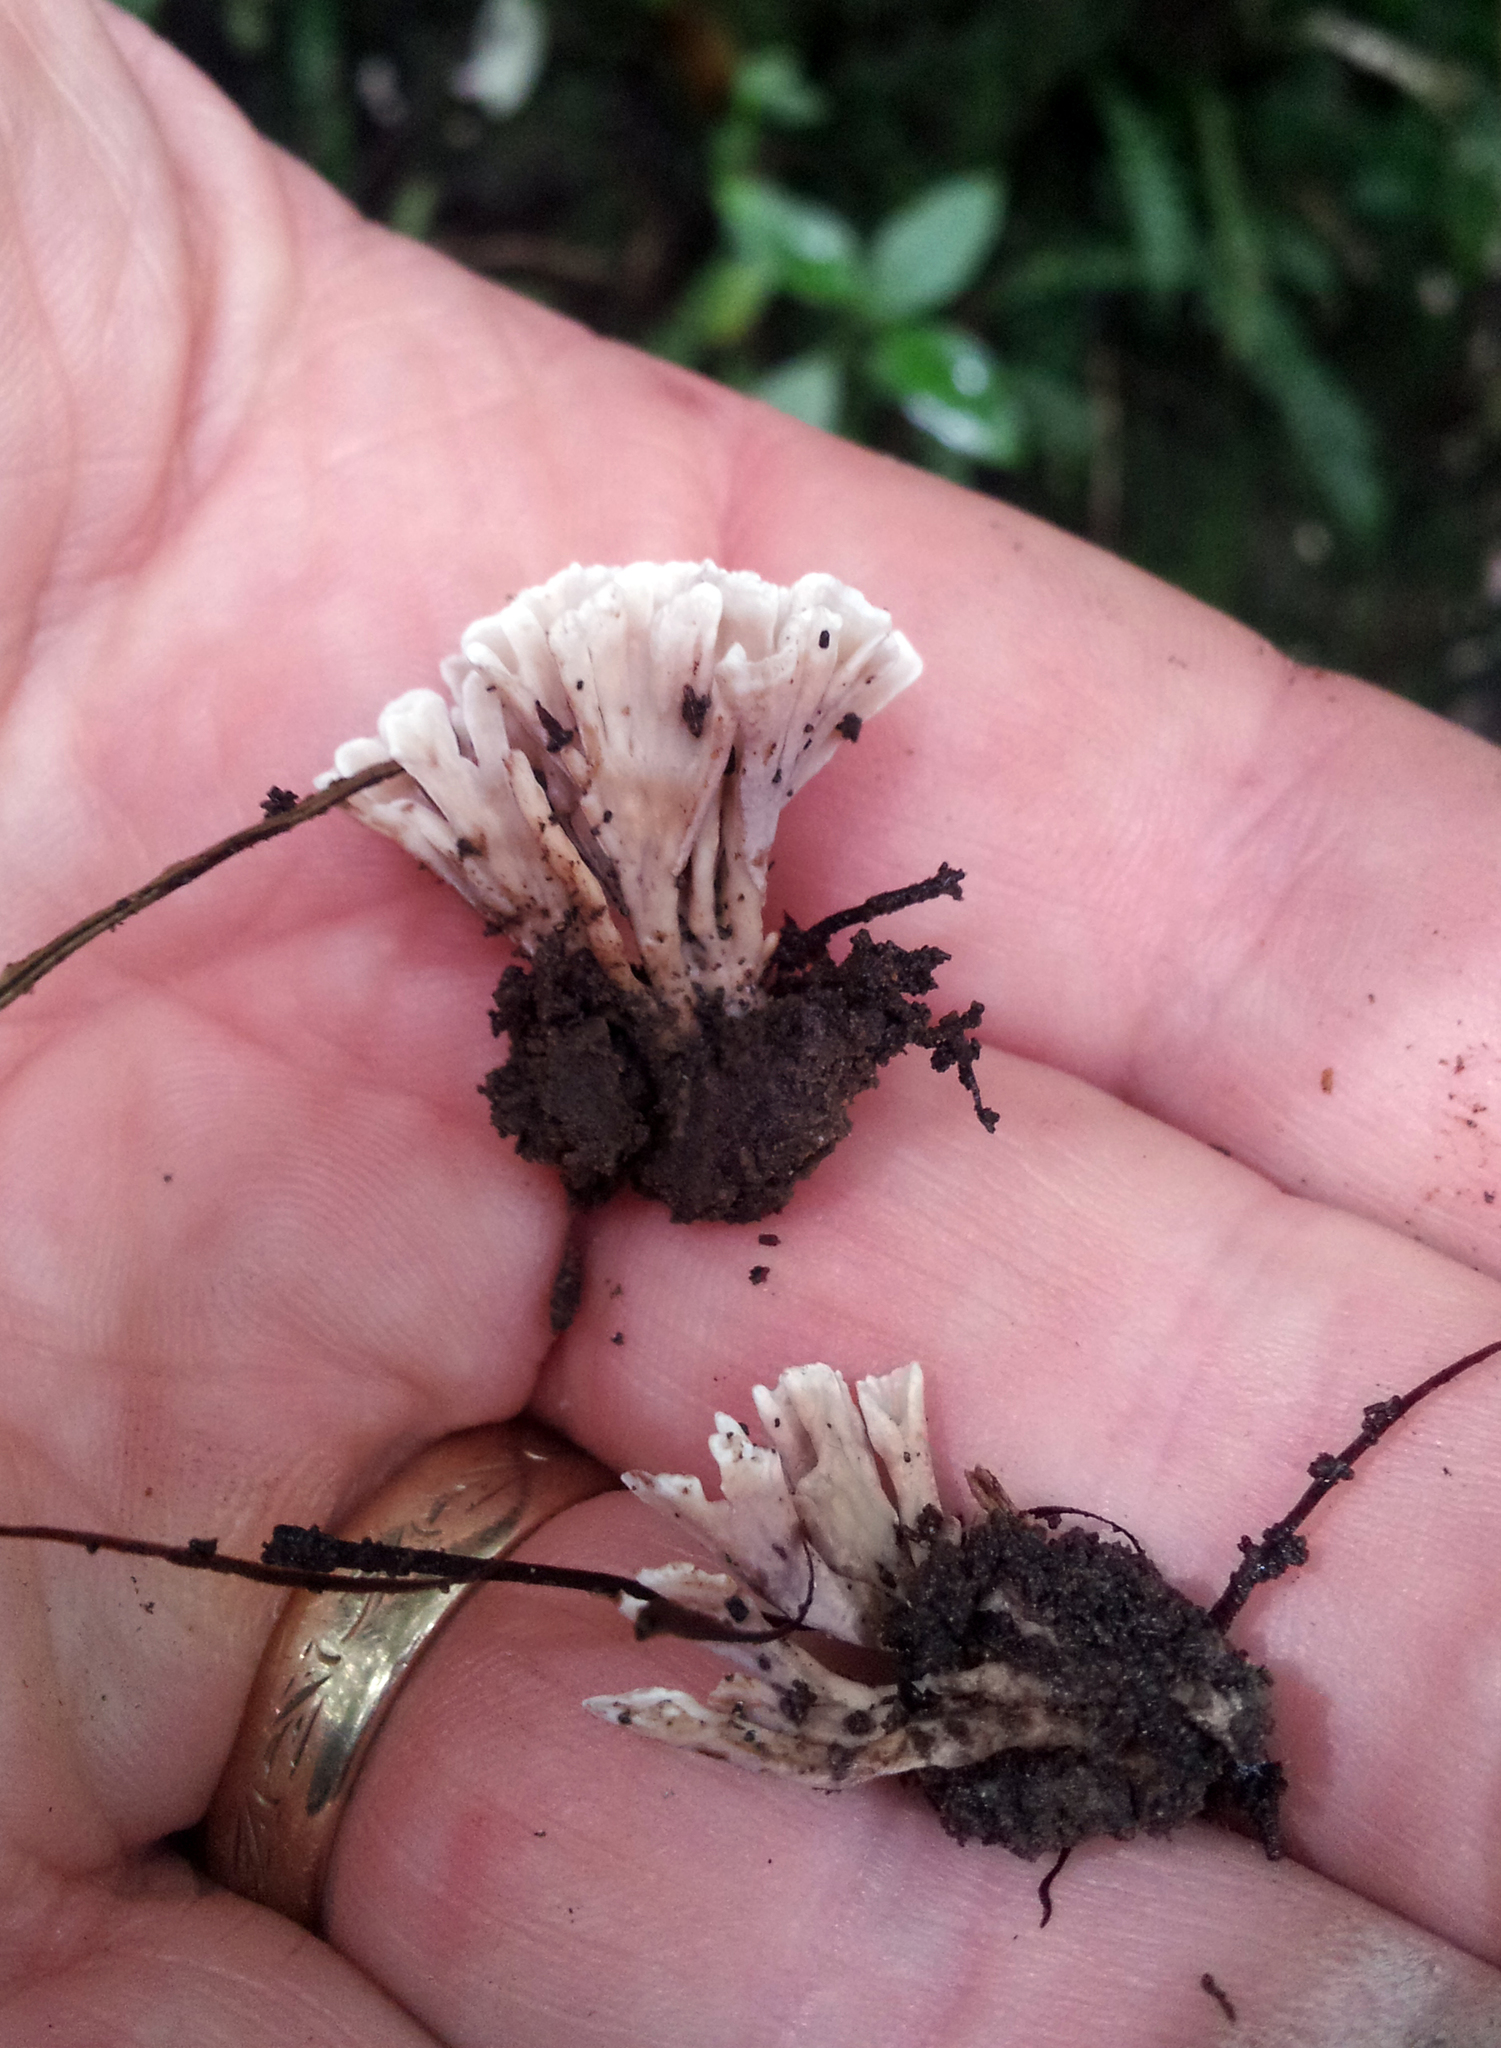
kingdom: Fungi
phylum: Basidiomycota
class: Agaricomycetes
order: Stereopsidales
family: Stereopsidaceae
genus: Stereopsis
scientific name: Stereopsis hiscens
